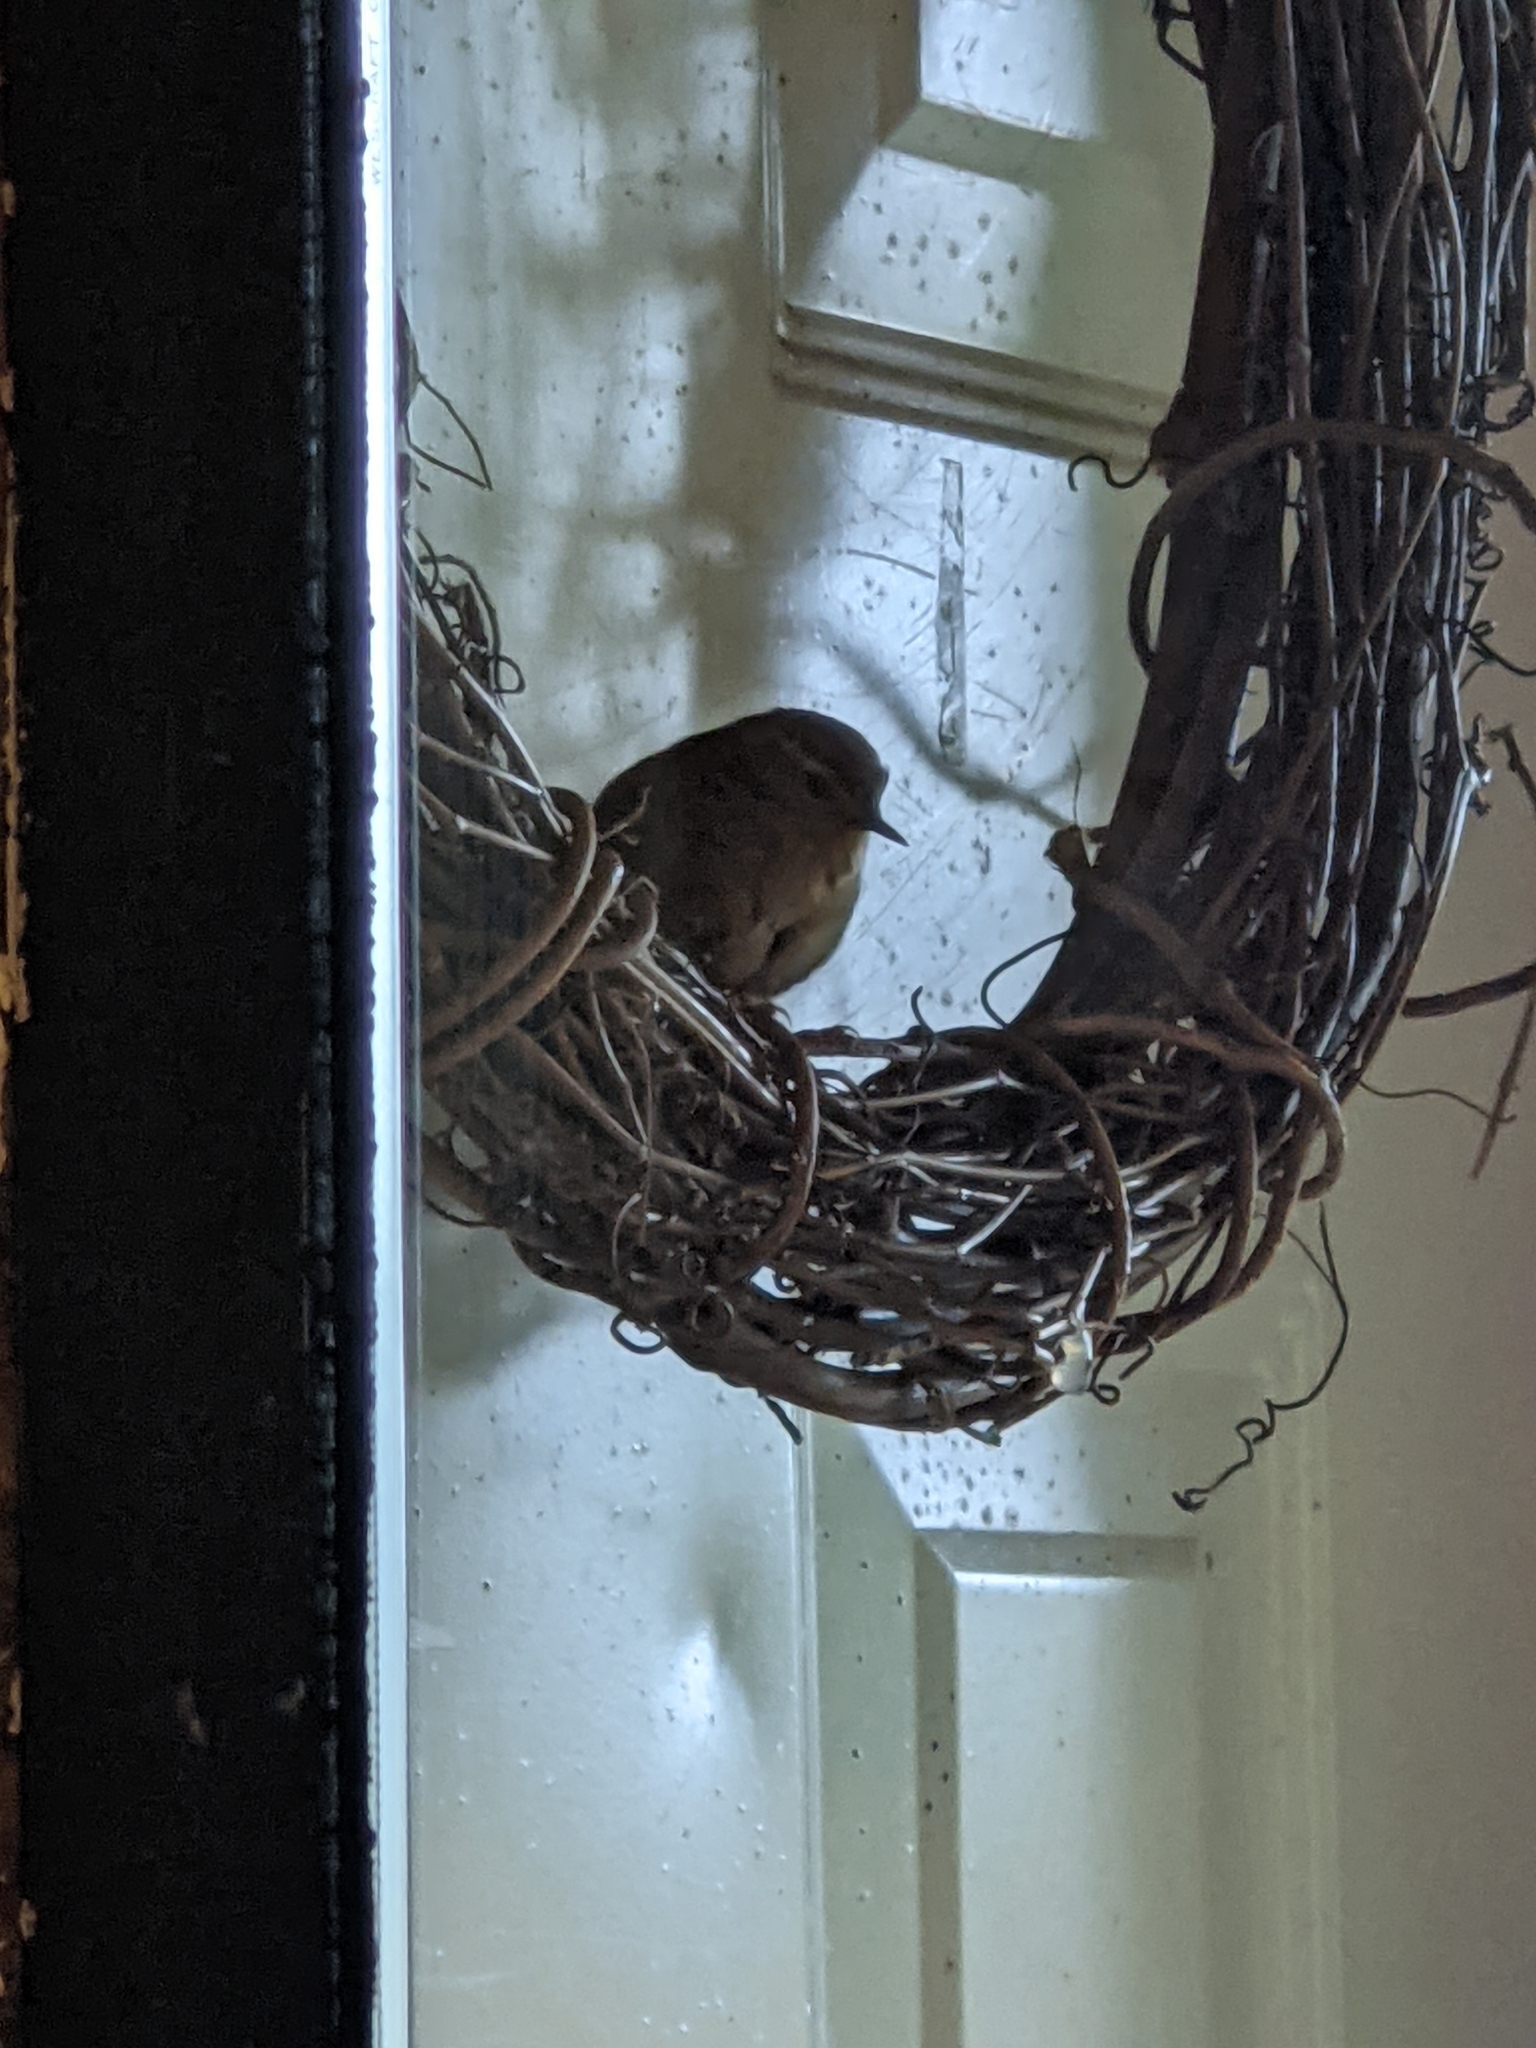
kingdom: Animalia
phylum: Chordata
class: Aves
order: Passeriformes
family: Troglodytidae
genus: Troglodytes
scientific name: Troglodytes pacificus
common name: Pacific wren
